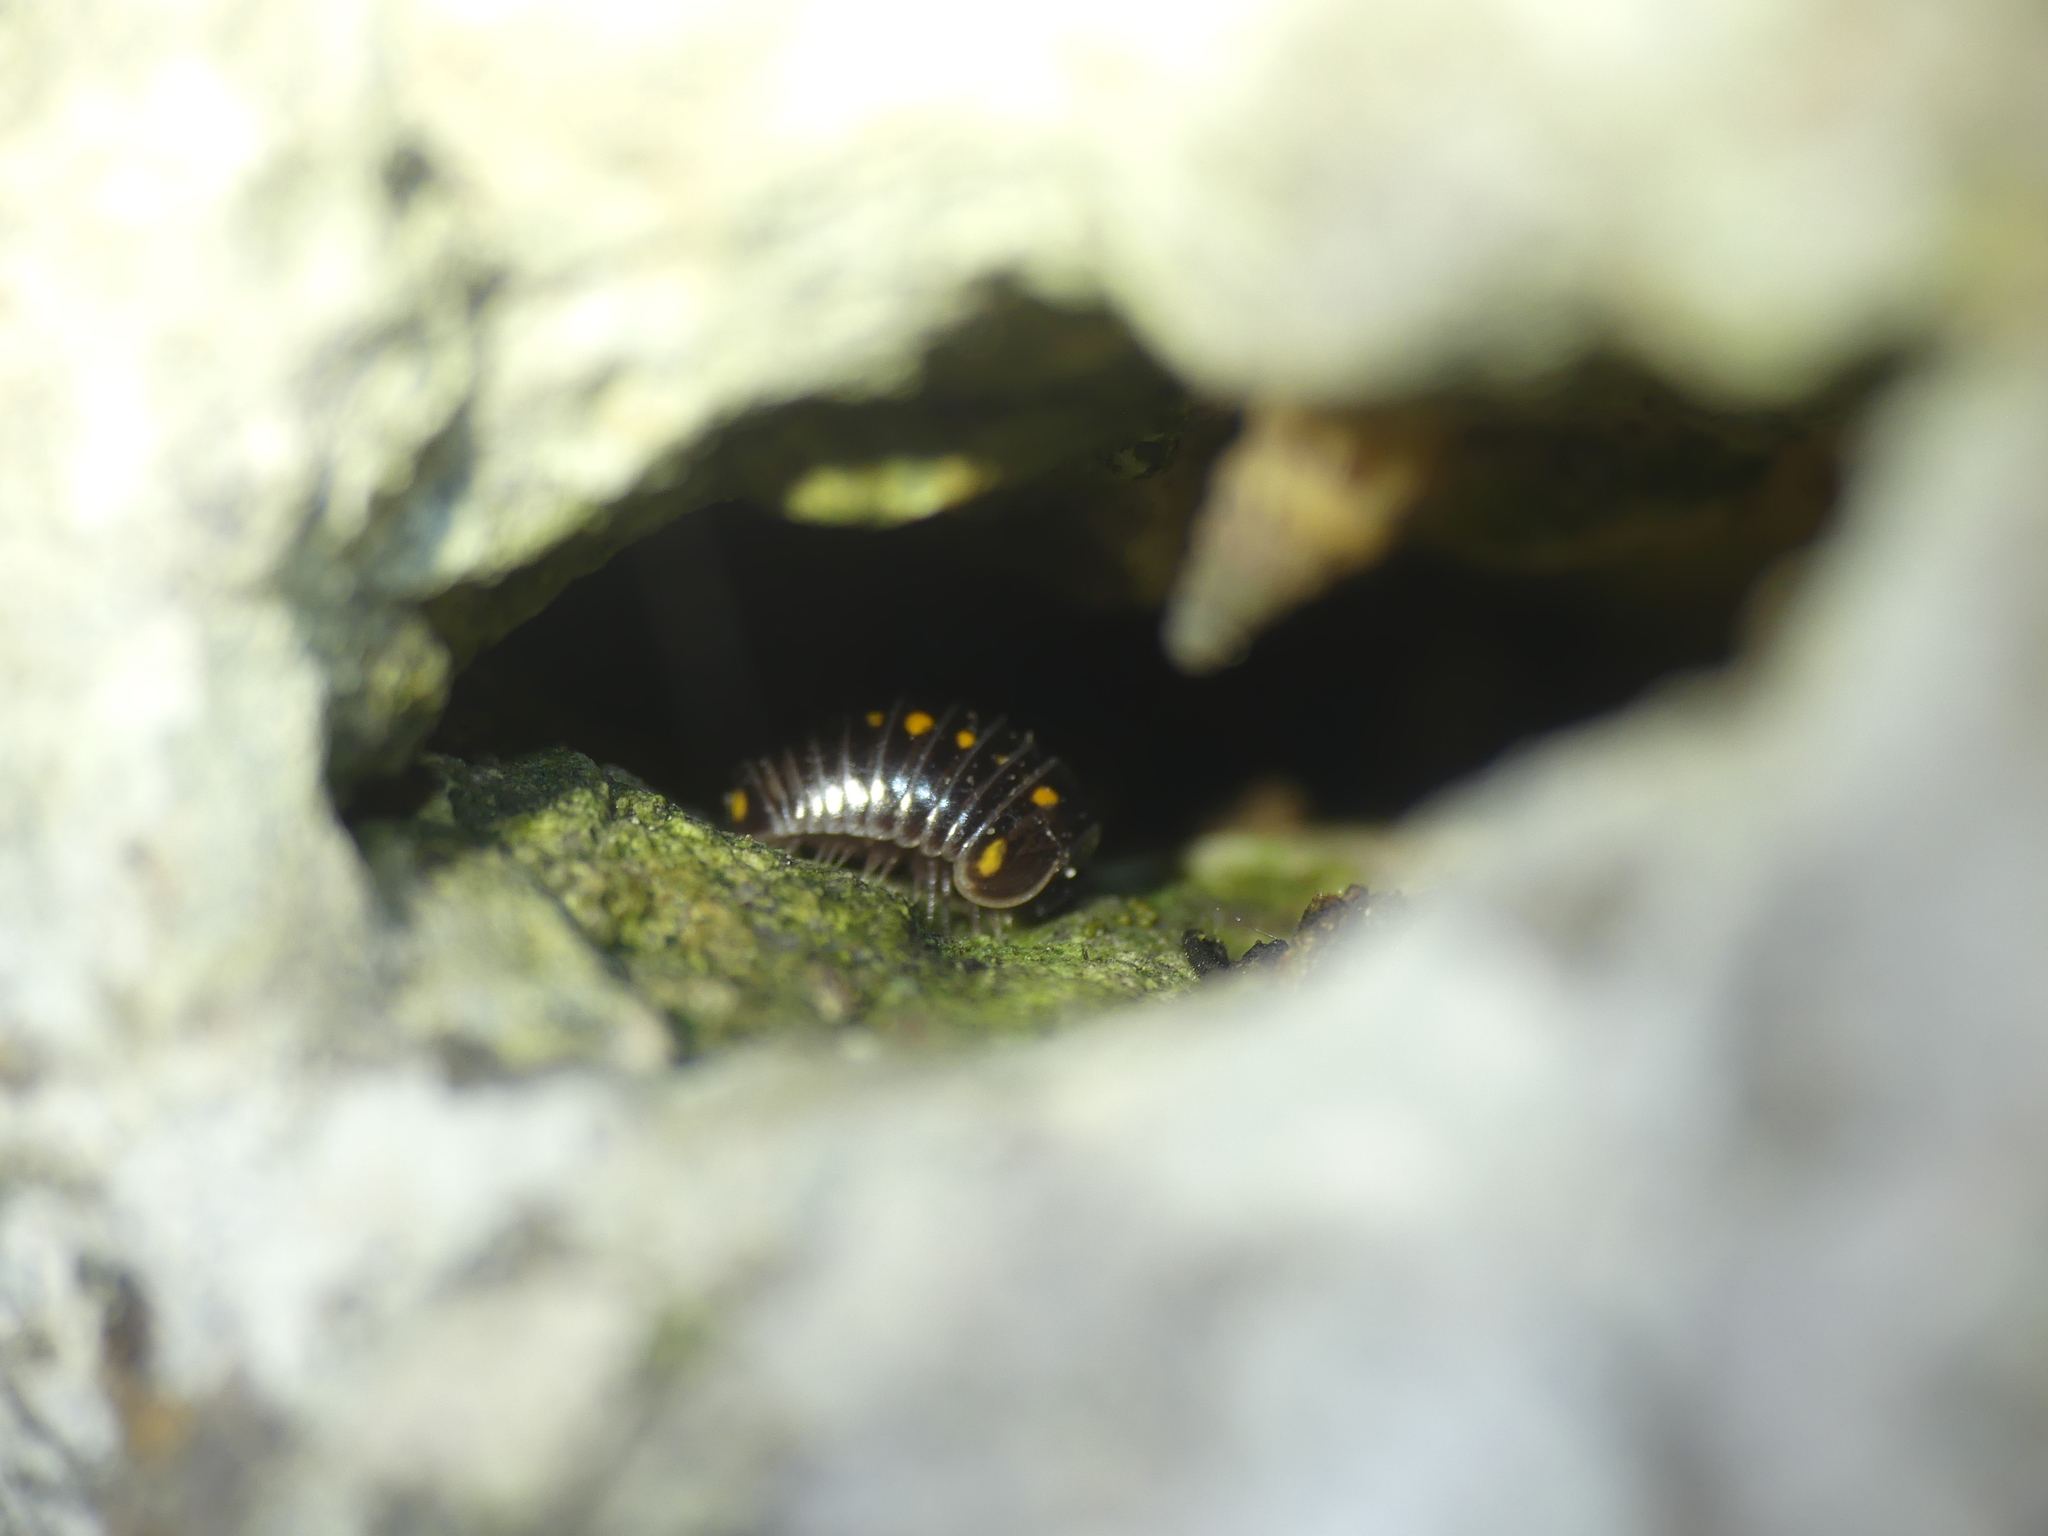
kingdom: Animalia
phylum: Arthropoda
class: Diplopoda
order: Glomerida
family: Glomeridae
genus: Glomeris
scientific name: Glomeris pustulata
